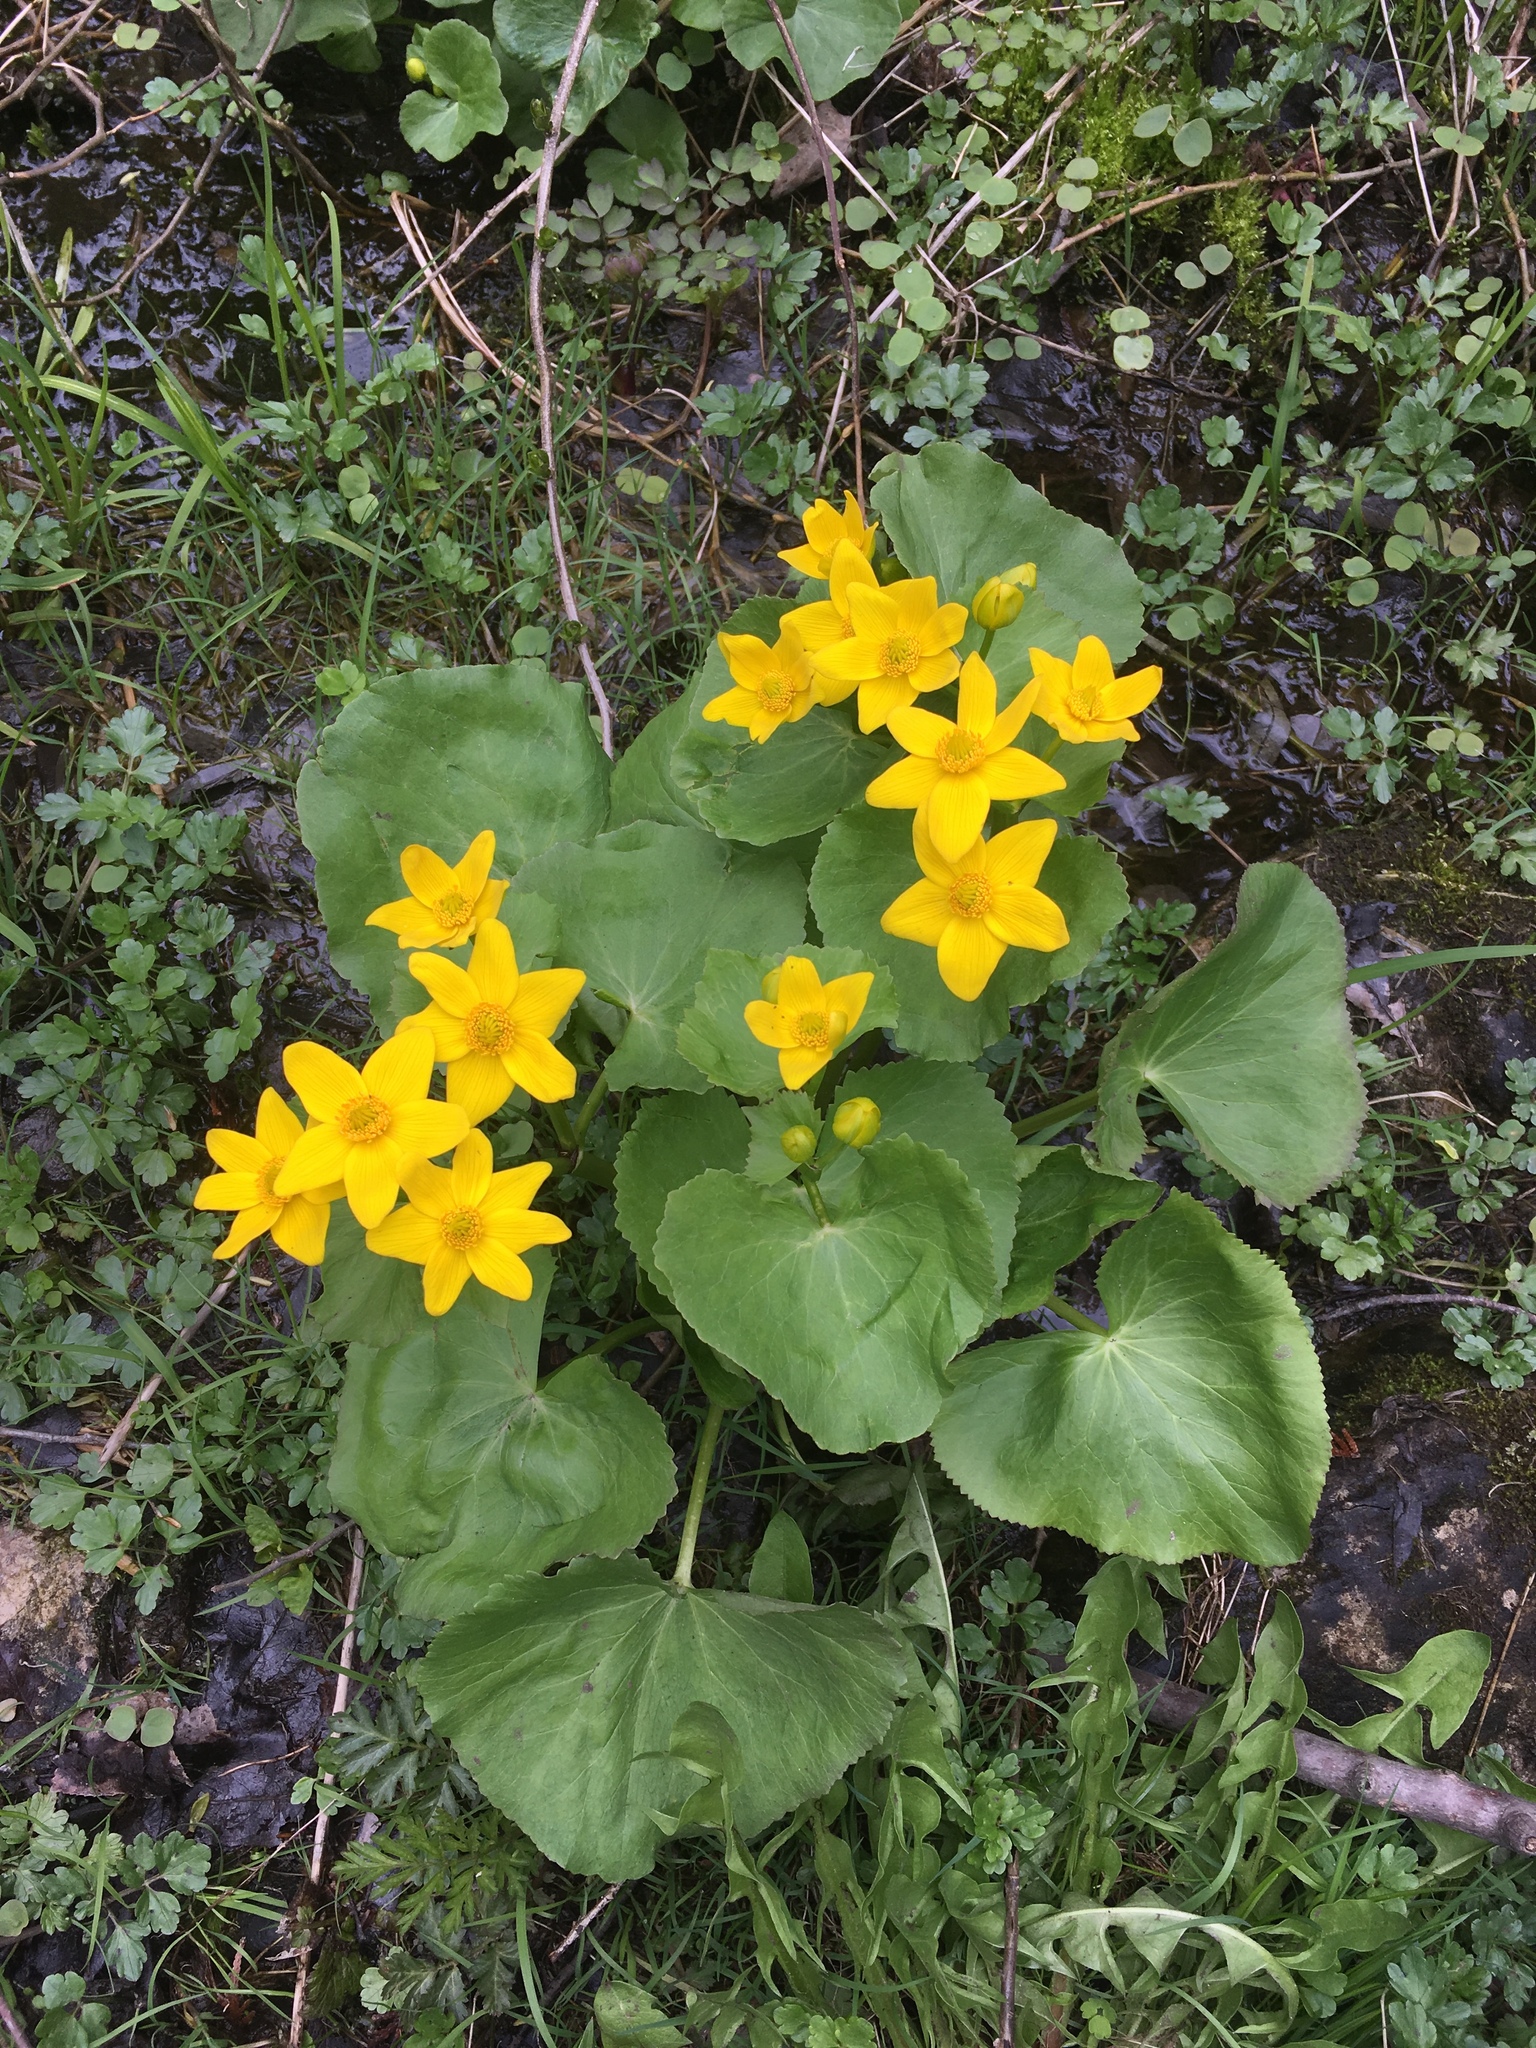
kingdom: Plantae
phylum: Tracheophyta
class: Magnoliopsida
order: Ranunculales
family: Ranunculaceae
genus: Caltha
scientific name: Caltha palustris
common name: Marsh marigold
